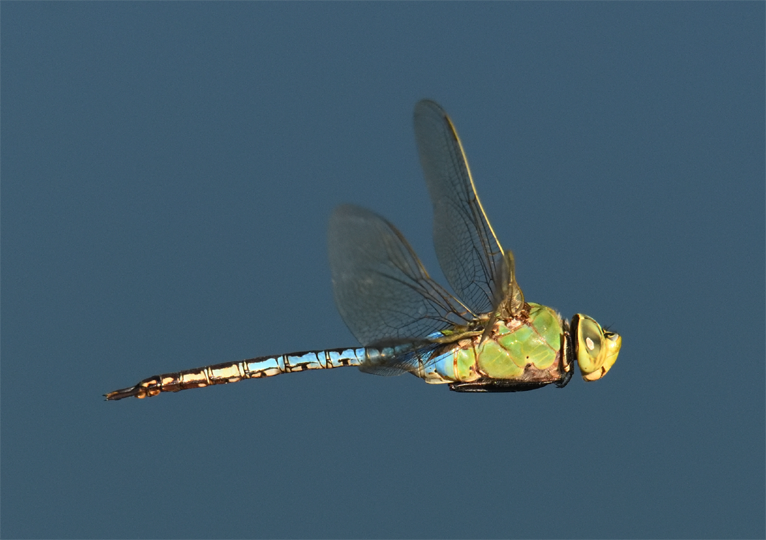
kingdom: Animalia
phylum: Arthropoda
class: Insecta
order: Odonata
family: Aeshnidae
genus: Anax
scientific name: Anax junius
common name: Common green darner
